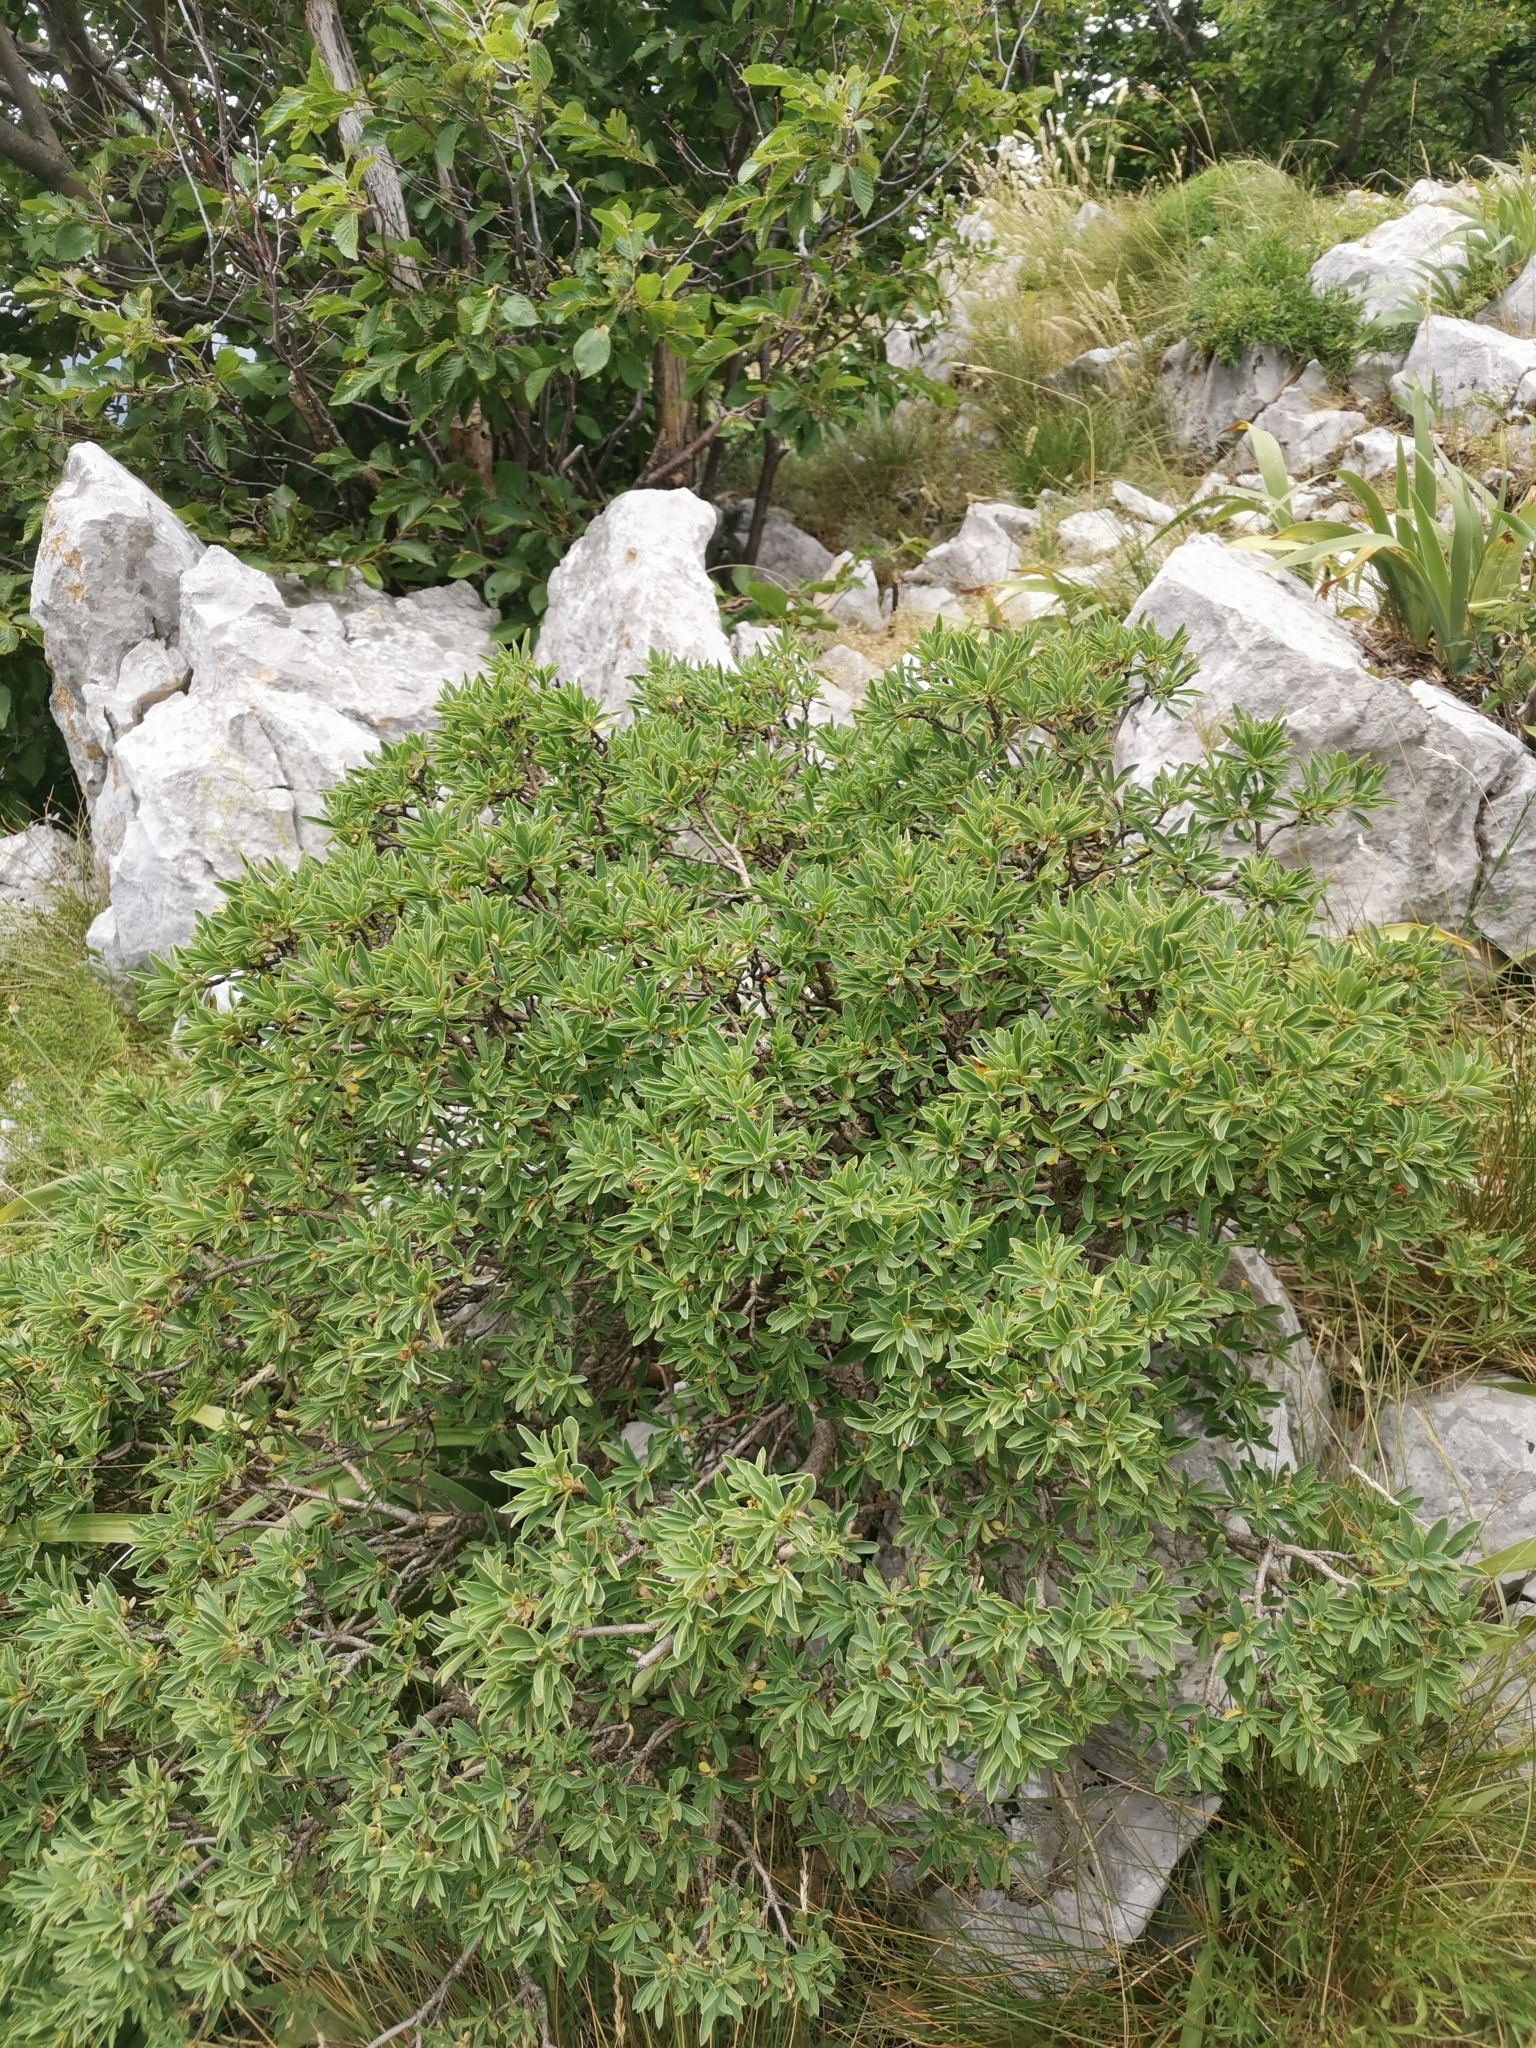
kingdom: Plantae
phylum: Tracheophyta
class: Magnoliopsida
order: Malvales
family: Thymelaeaceae
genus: Daphne
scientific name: Daphne alpina
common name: Alpine daphne
